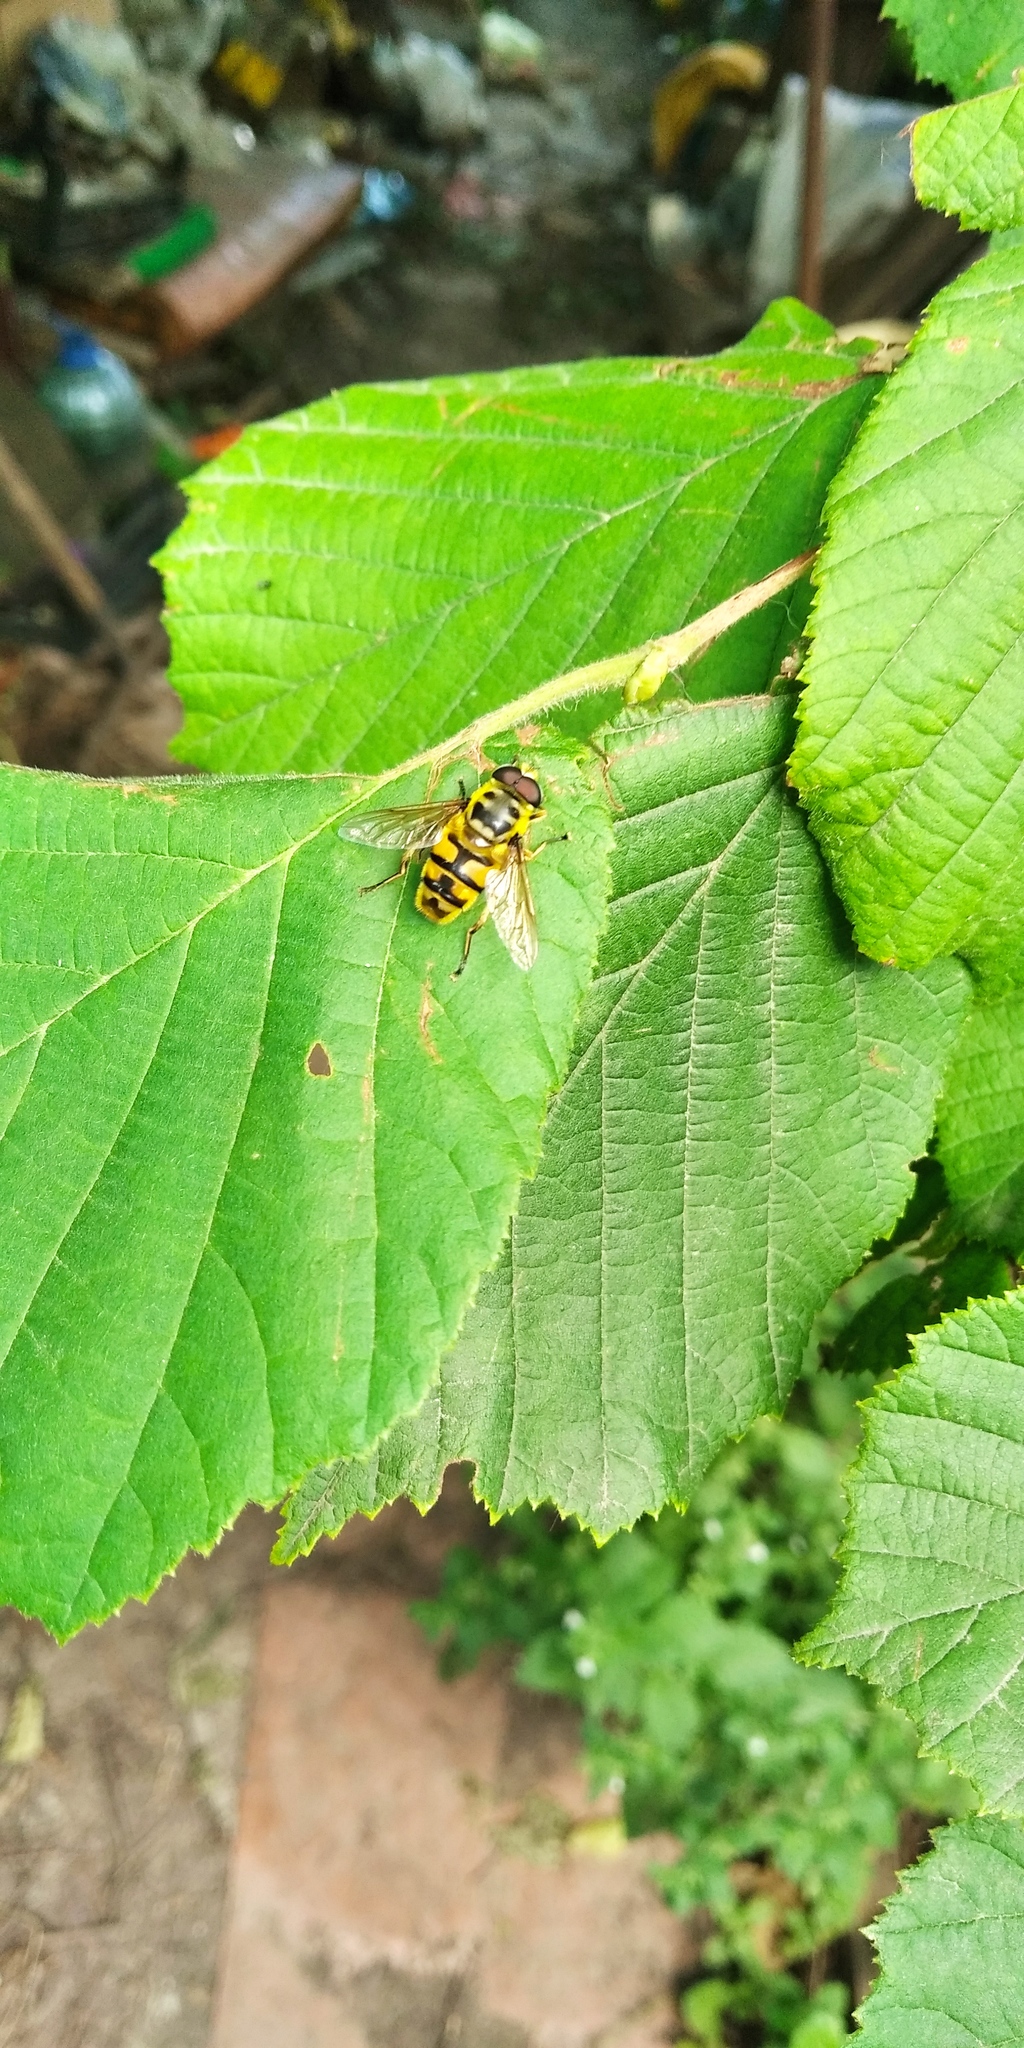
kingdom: Animalia
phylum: Arthropoda
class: Insecta
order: Diptera
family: Syrphidae
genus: Myathropa
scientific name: Myathropa florea
